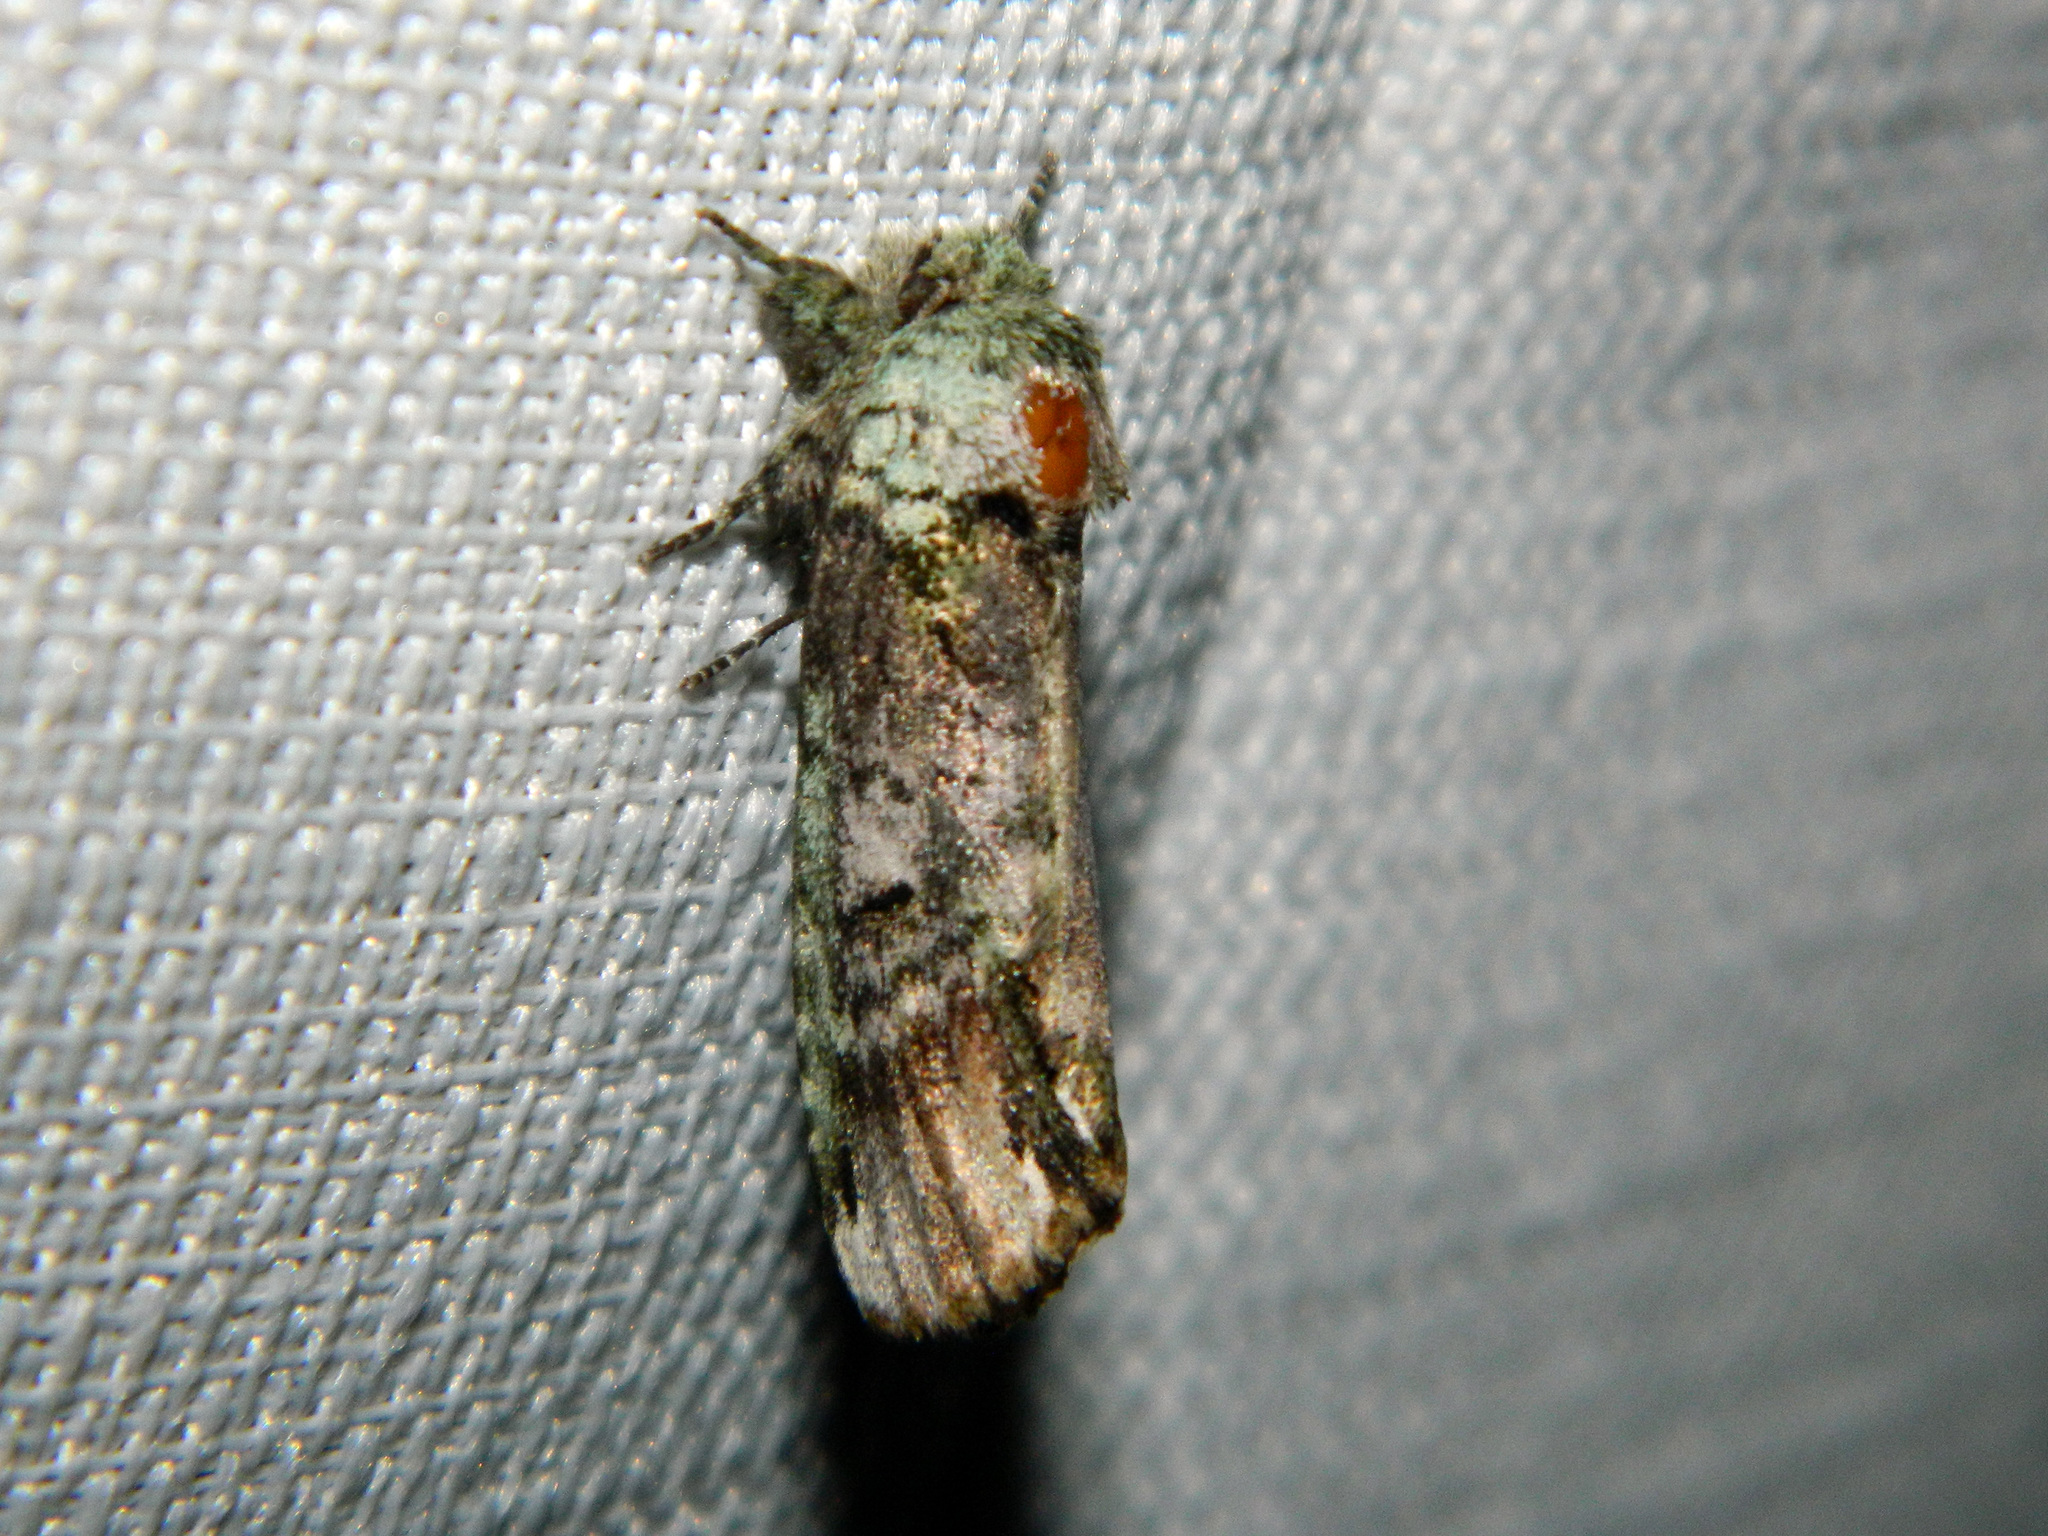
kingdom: Animalia
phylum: Arthropoda
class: Insecta
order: Lepidoptera
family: Notodontidae
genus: Schizura
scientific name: Schizura
